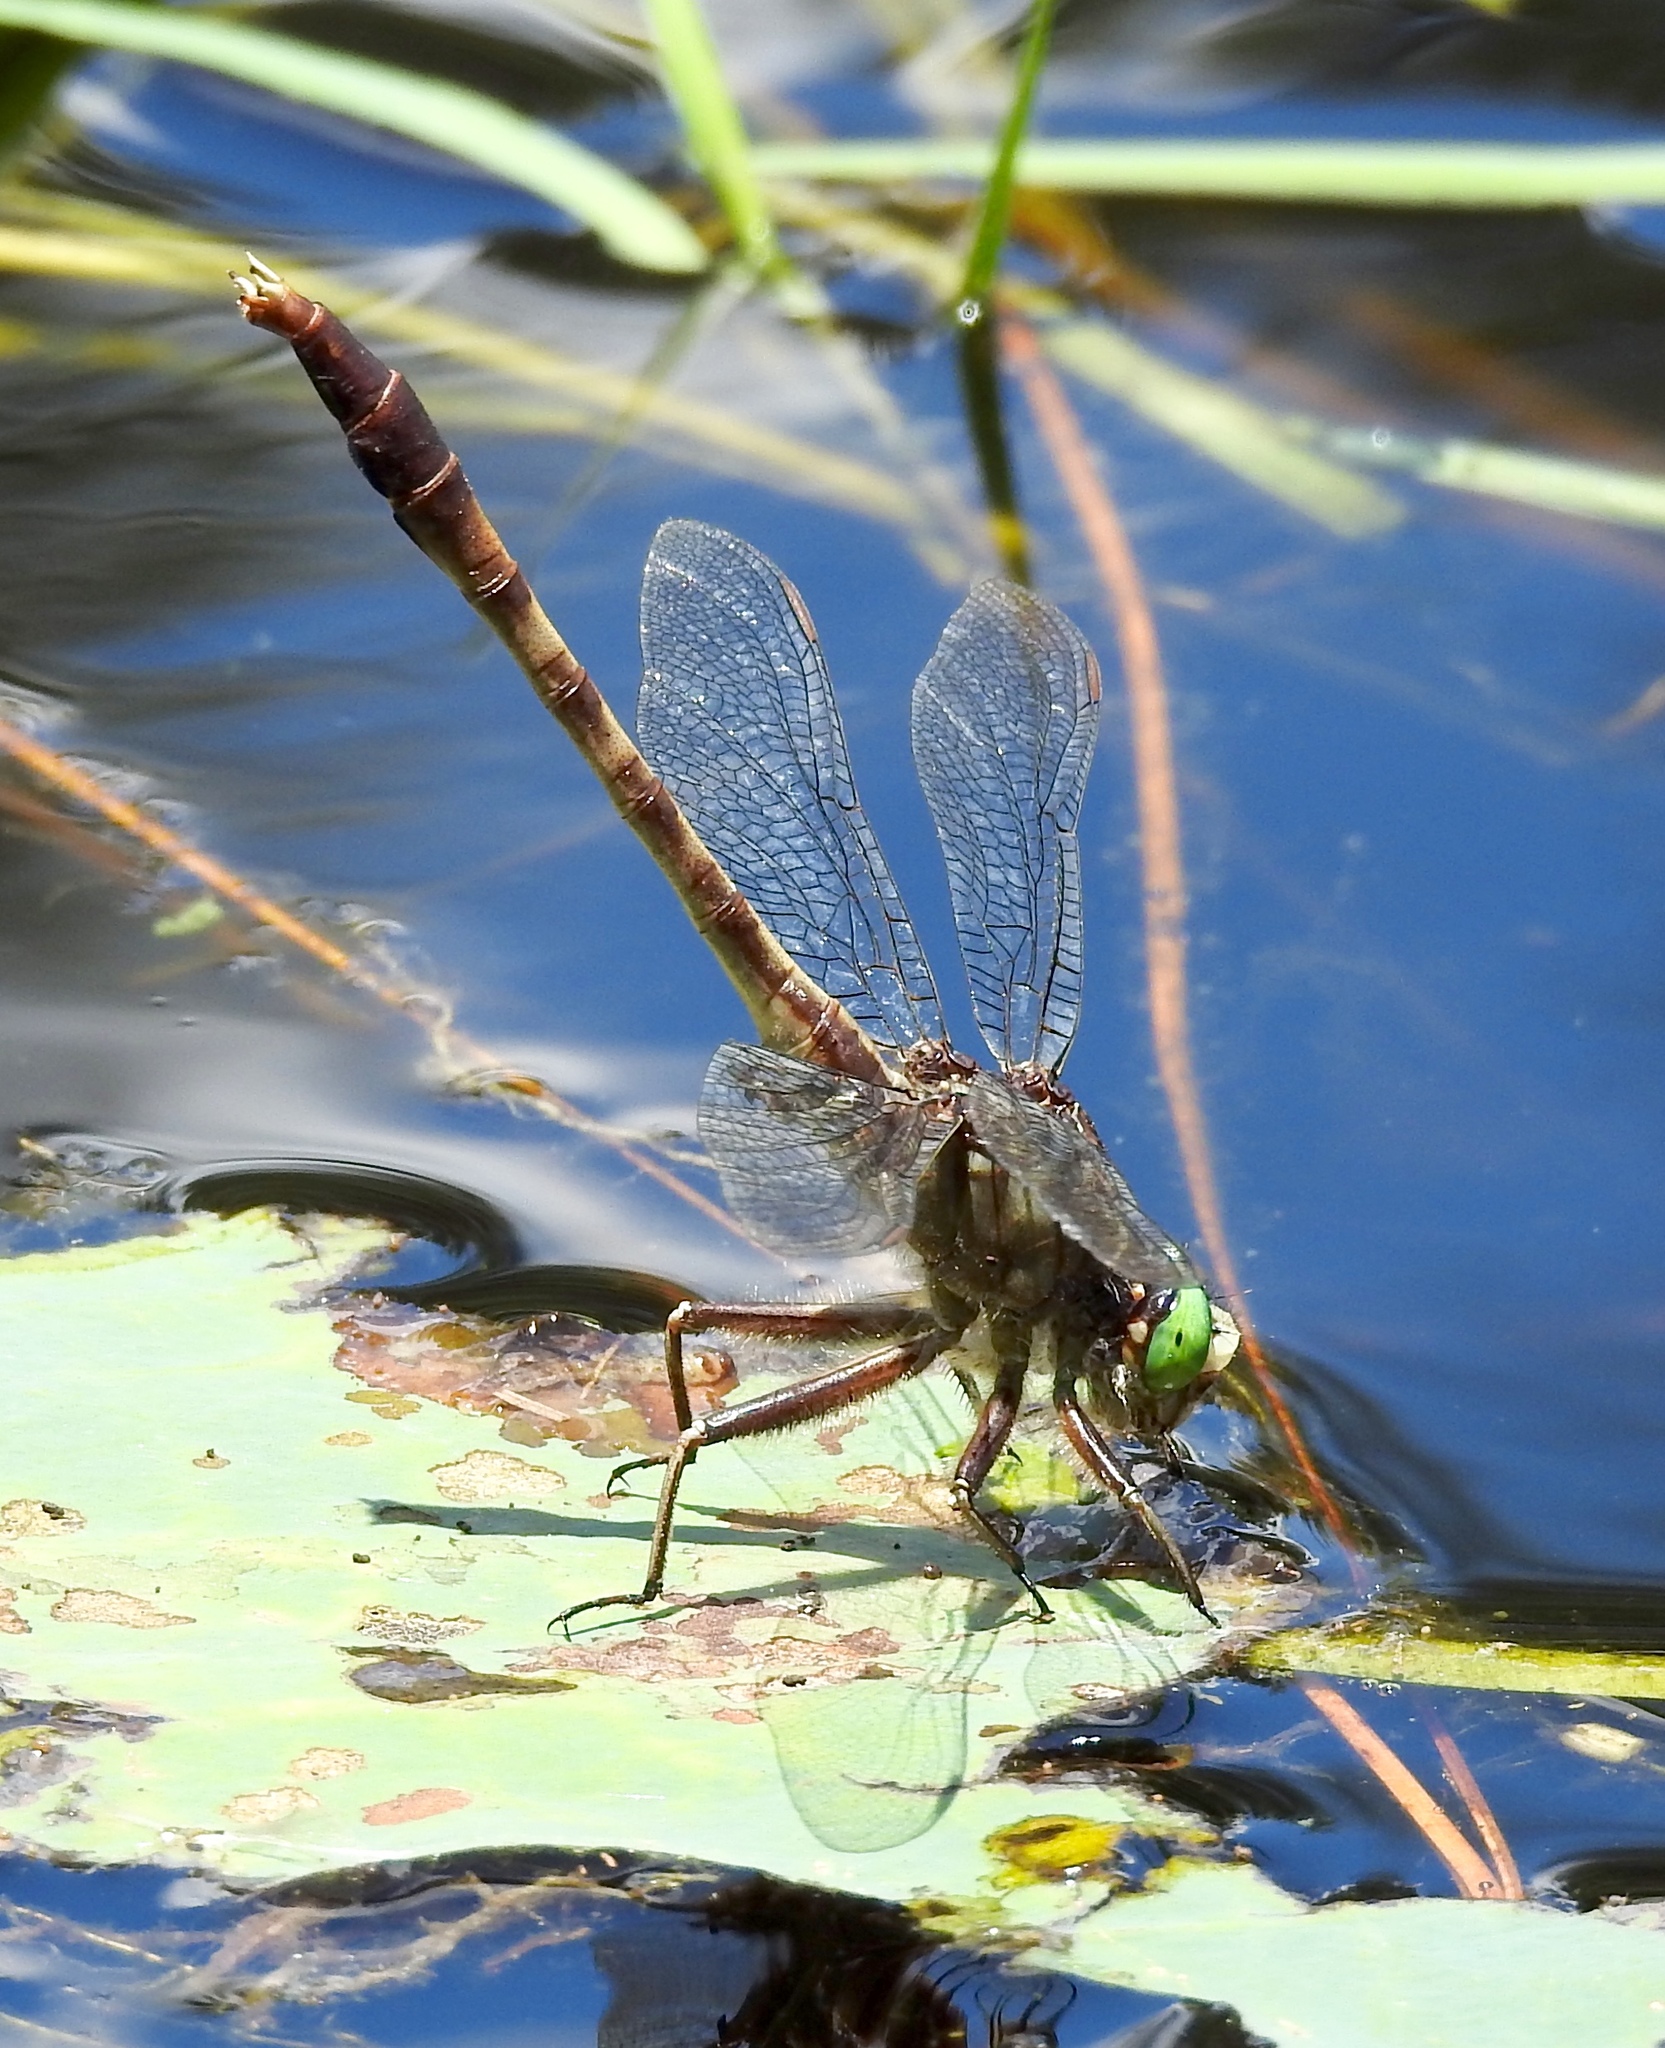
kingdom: Animalia
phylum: Arthropoda
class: Insecta
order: Odonata
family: Gomphidae
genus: Arigomphus
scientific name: Arigomphus pallidus
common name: Gray-green clubtail
